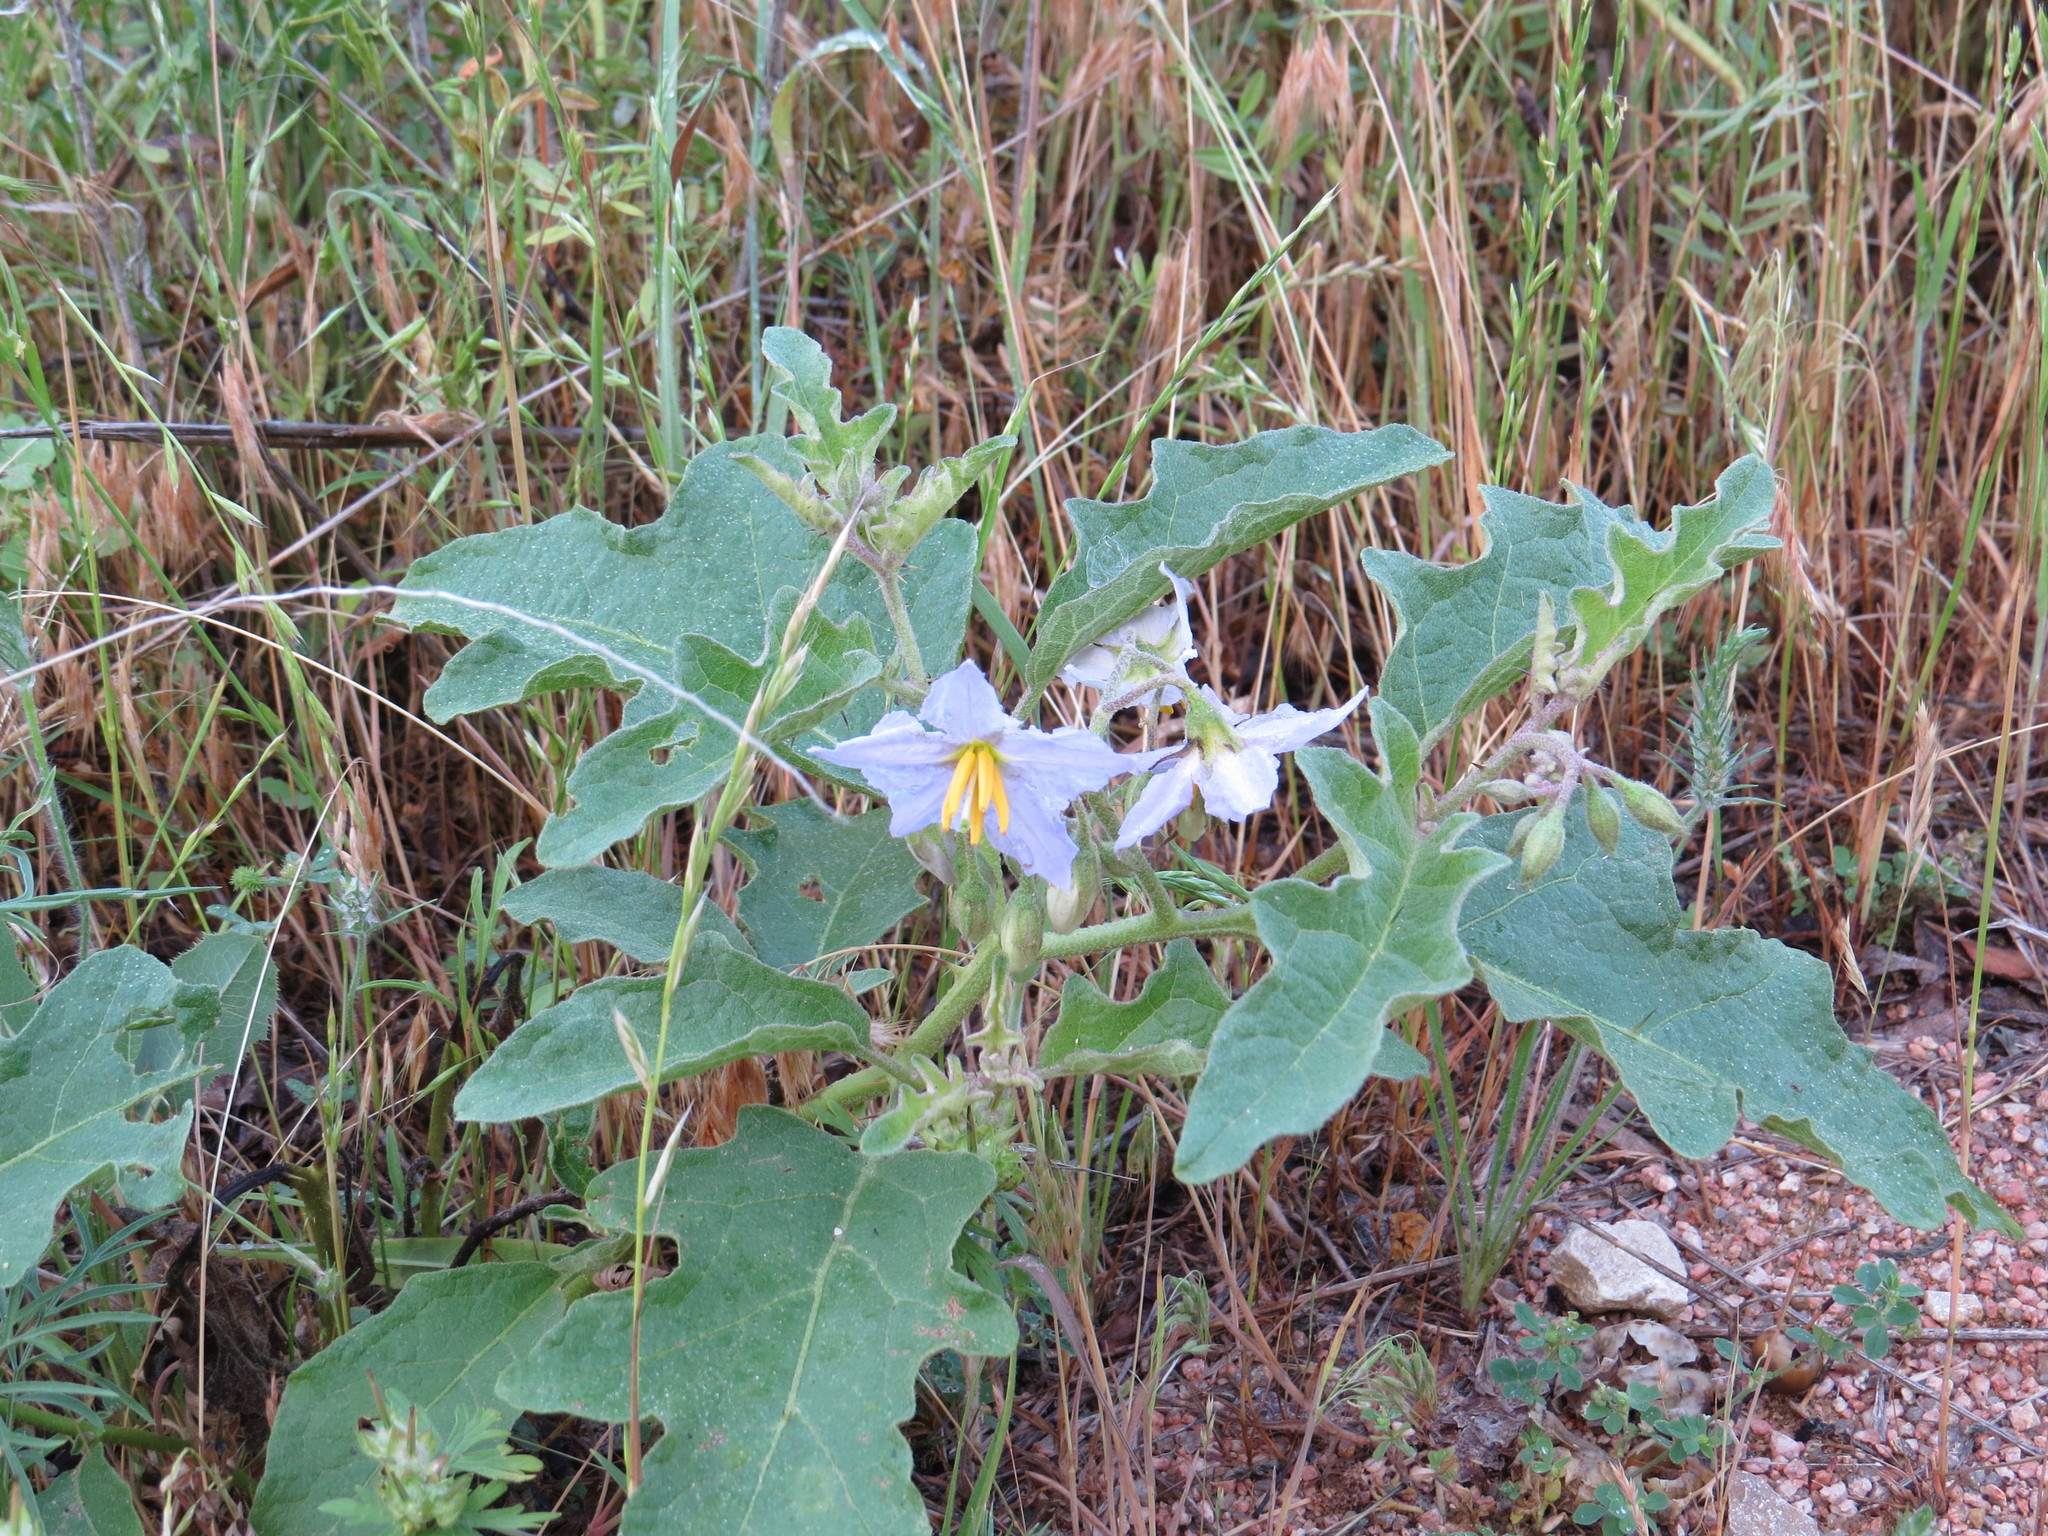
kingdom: Plantae
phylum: Tracheophyta
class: Magnoliopsida
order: Solanales
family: Solanaceae
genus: Solanum
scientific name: Solanum dimidiatum
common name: Carolina horse-nettle
